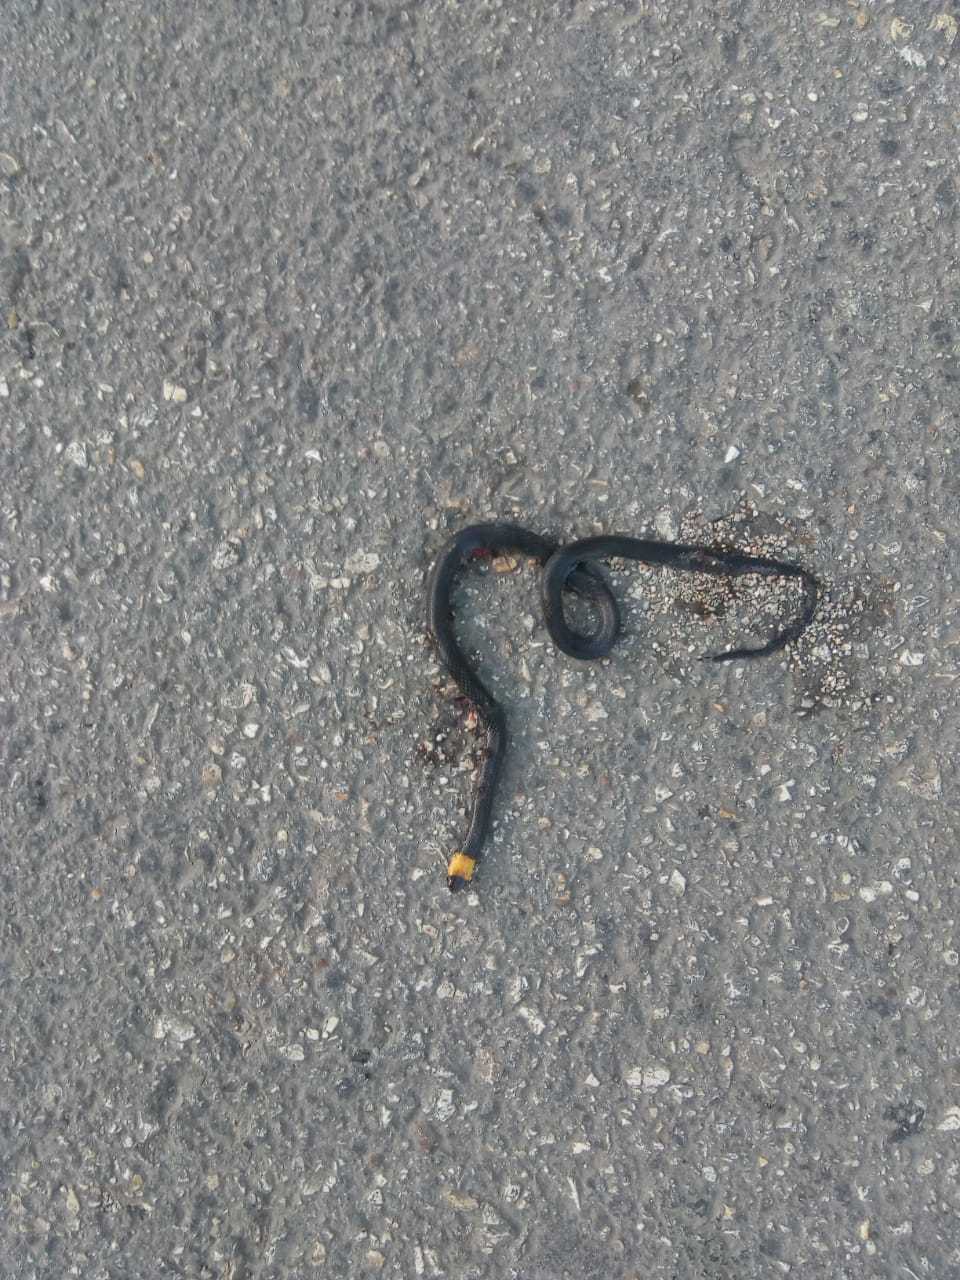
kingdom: Animalia
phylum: Chordata
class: Squamata
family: Colubridae
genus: Tantilla
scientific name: Tantilla moesta
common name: Blackbelly centipede snake
